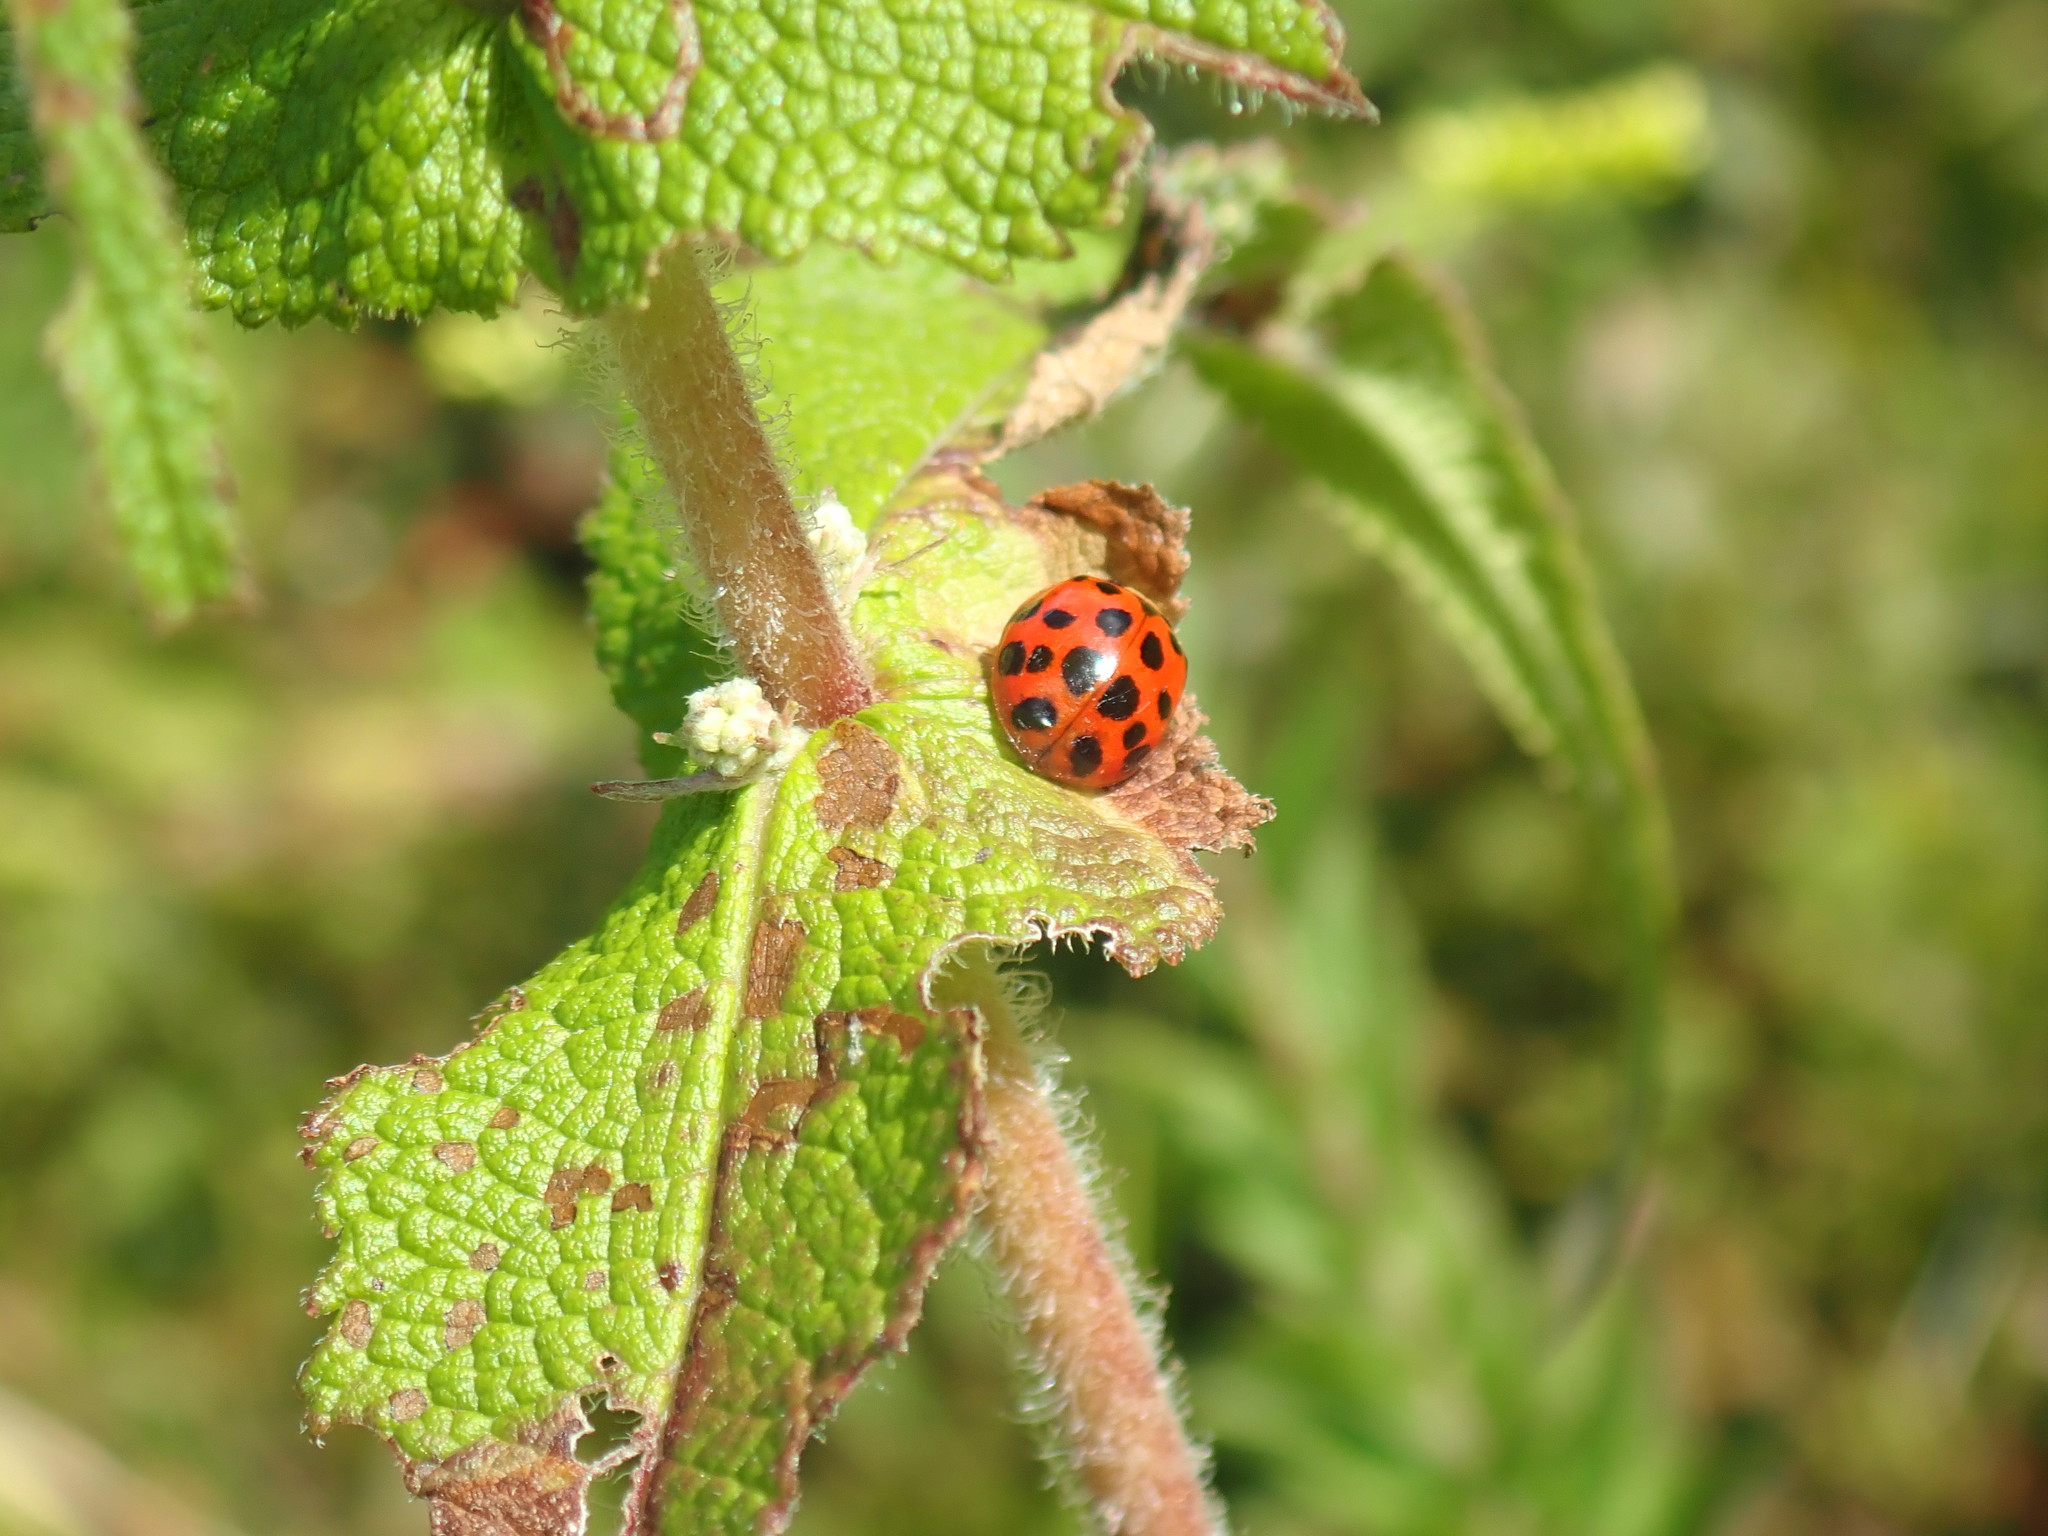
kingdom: Animalia
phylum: Arthropoda
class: Insecta
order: Coleoptera
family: Coccinellidae
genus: Harmonia
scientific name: Harmonia axyridis
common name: Harlequin ladybird
